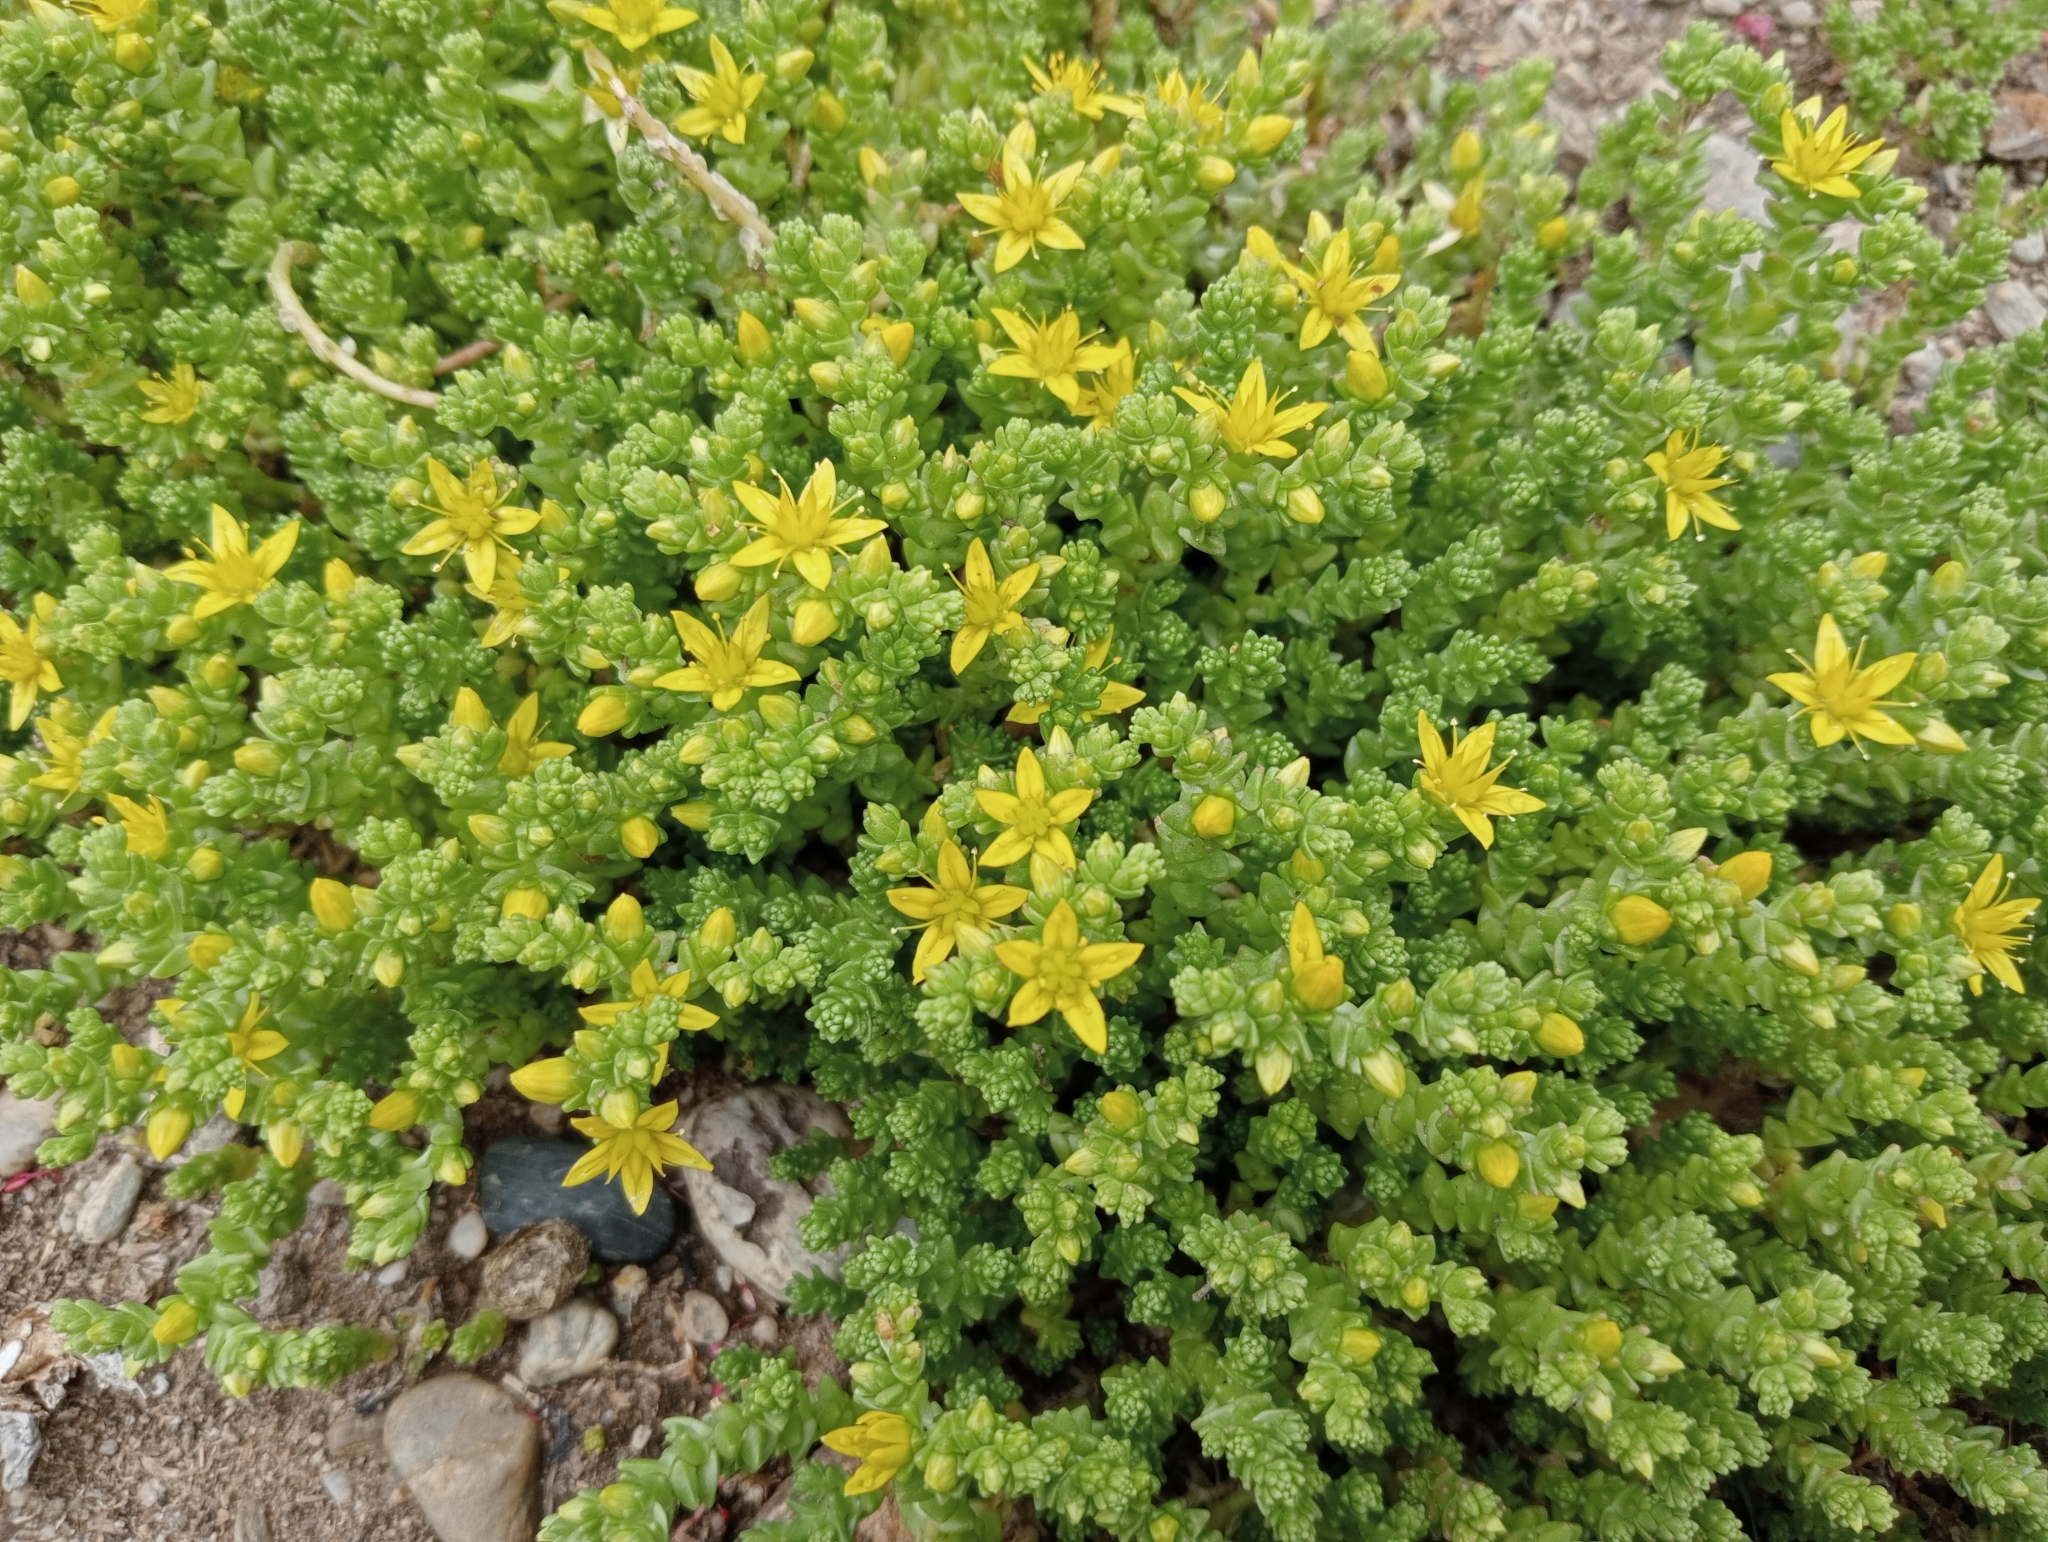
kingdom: Plantae
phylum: Tracheophyta
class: Magnoliopsida
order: Saxifragales
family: Crassulaceae
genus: Sedum
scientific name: Sedum acre
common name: Biting stonecrop
